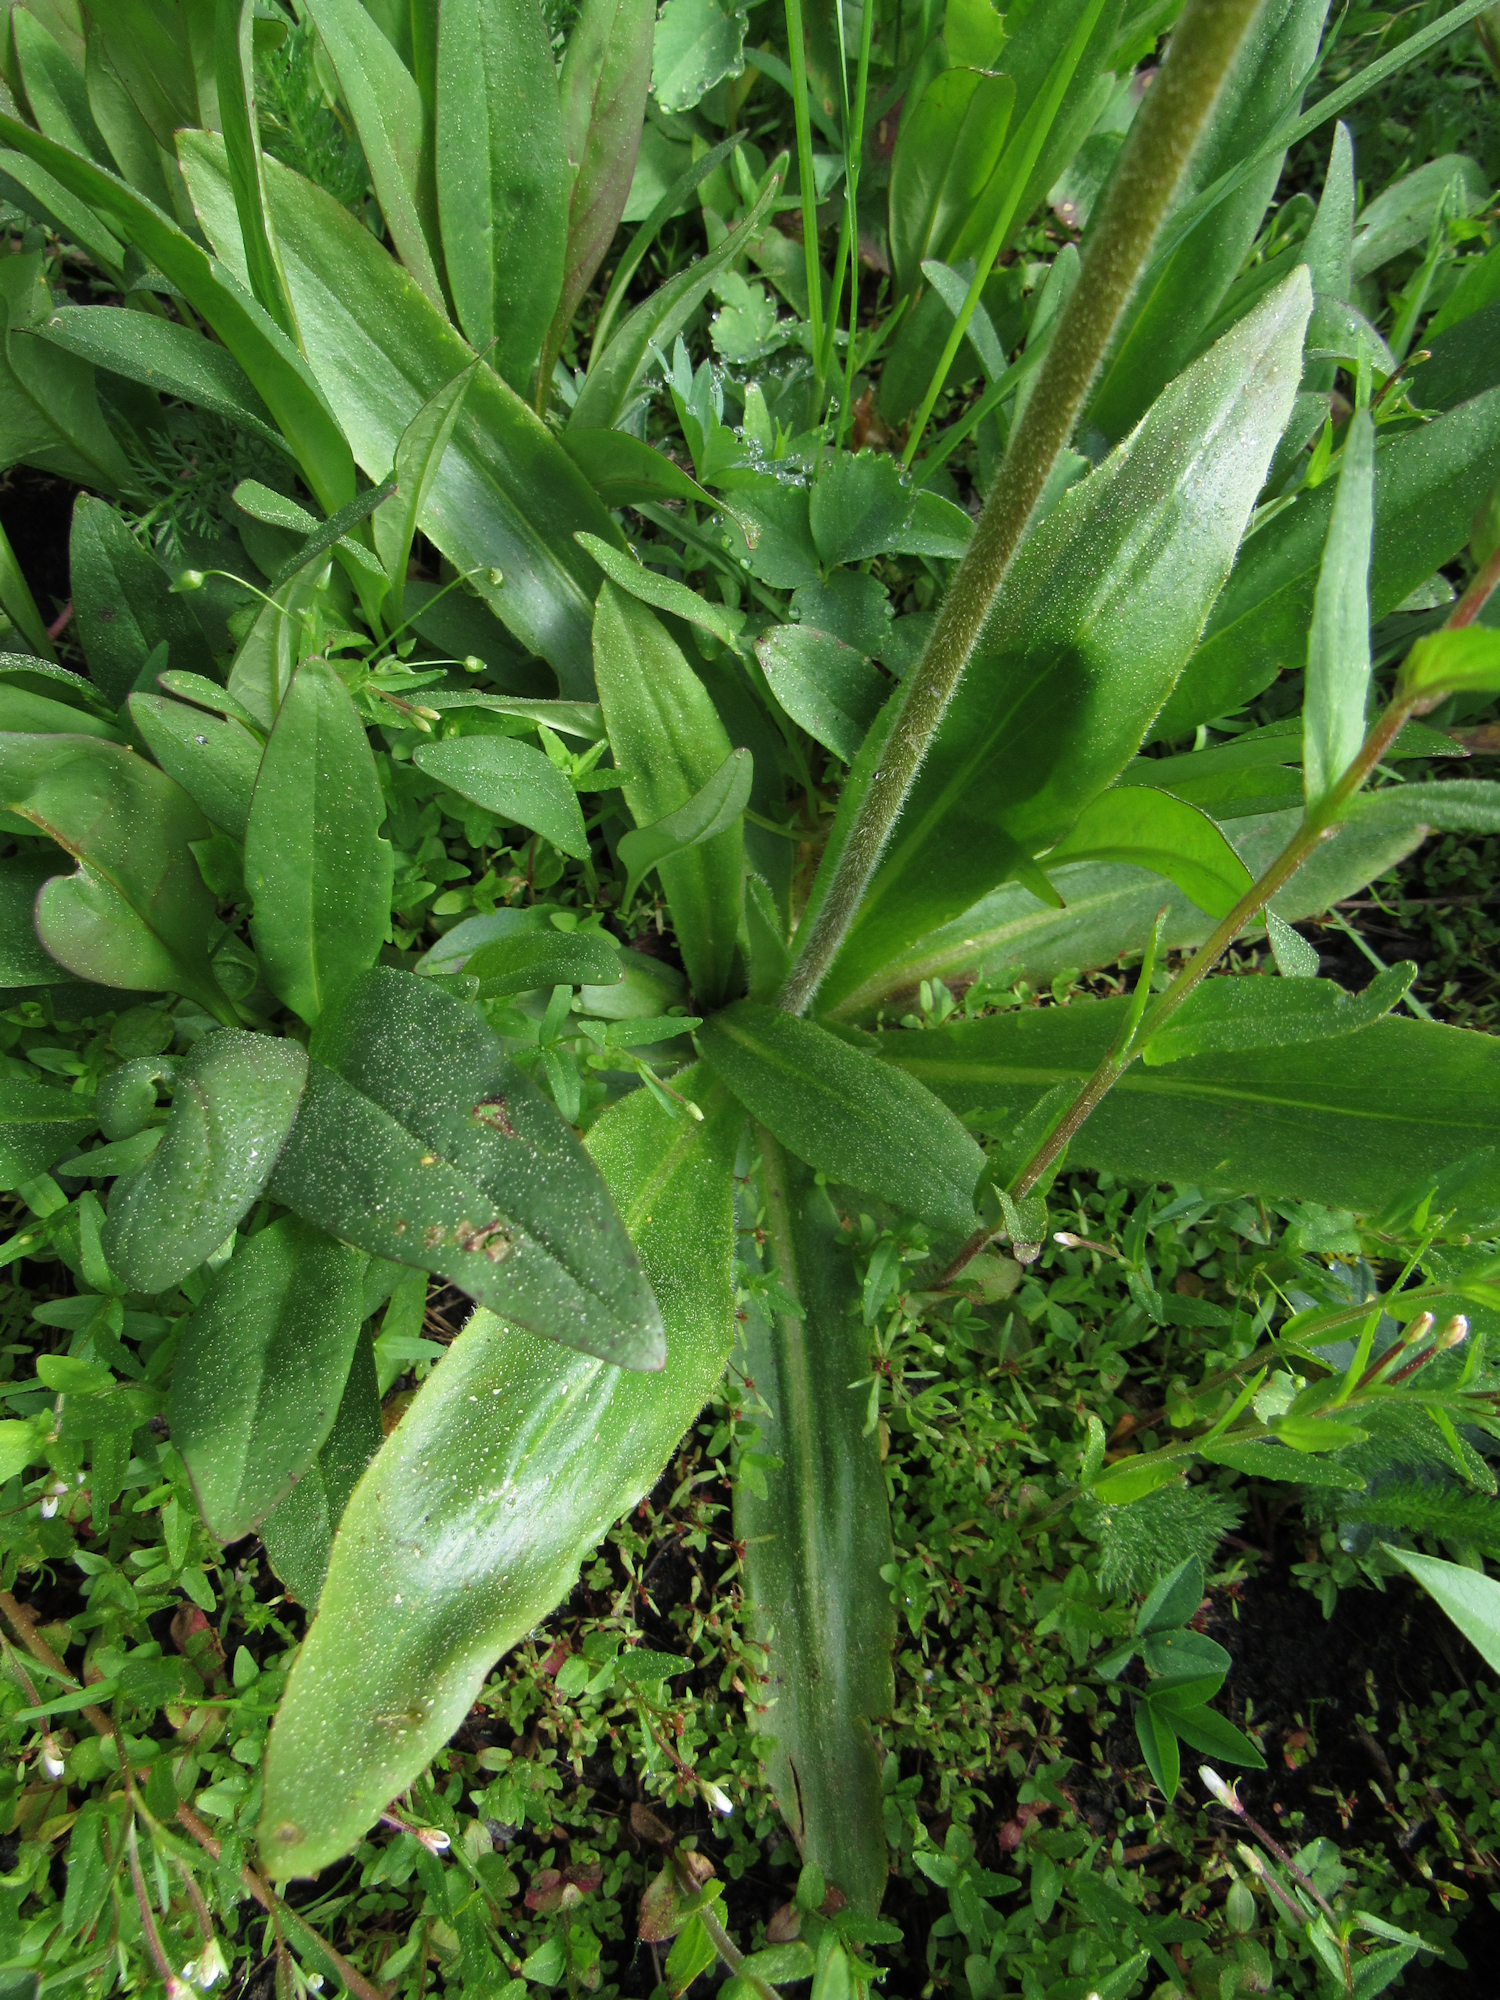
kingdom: Plantae
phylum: Tracheophyta
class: Magnoliopsida
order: Saxifragales
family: Saxifragaceae
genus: Micranthes
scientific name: Micranthes oregana
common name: Bog saxifrage
